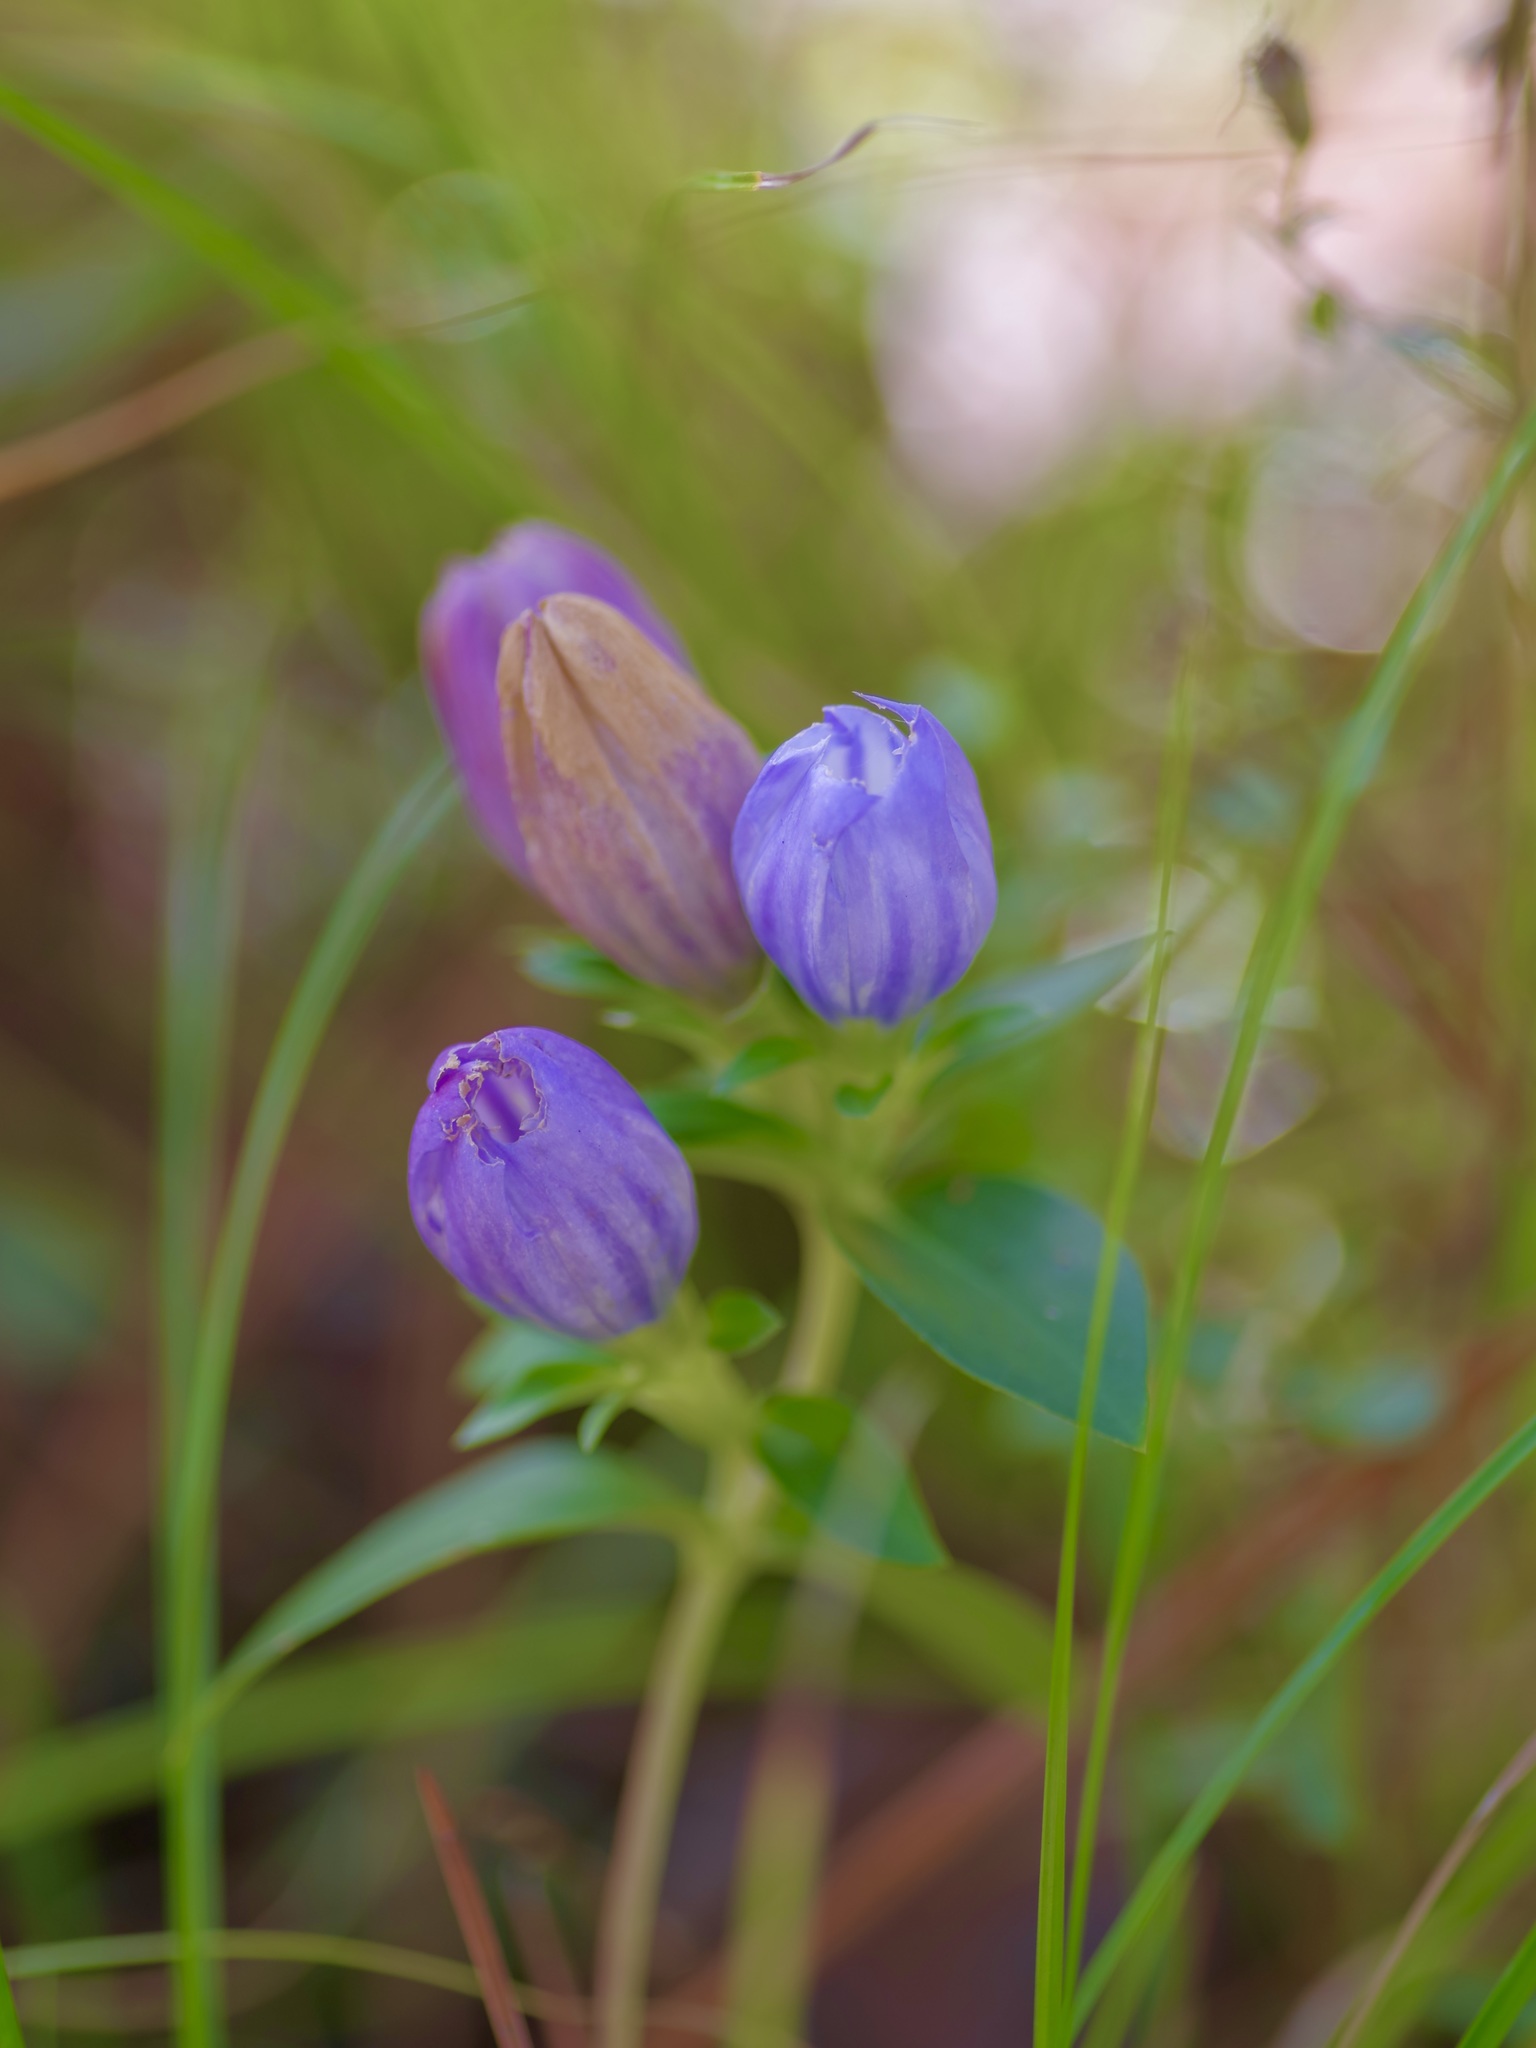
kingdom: Plantae
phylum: Tracheophyta
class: Magnoliopsida
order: Gentianales
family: Gentianaceae
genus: Gentiana
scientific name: Gentiana saponaria
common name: Soapwort gentian
